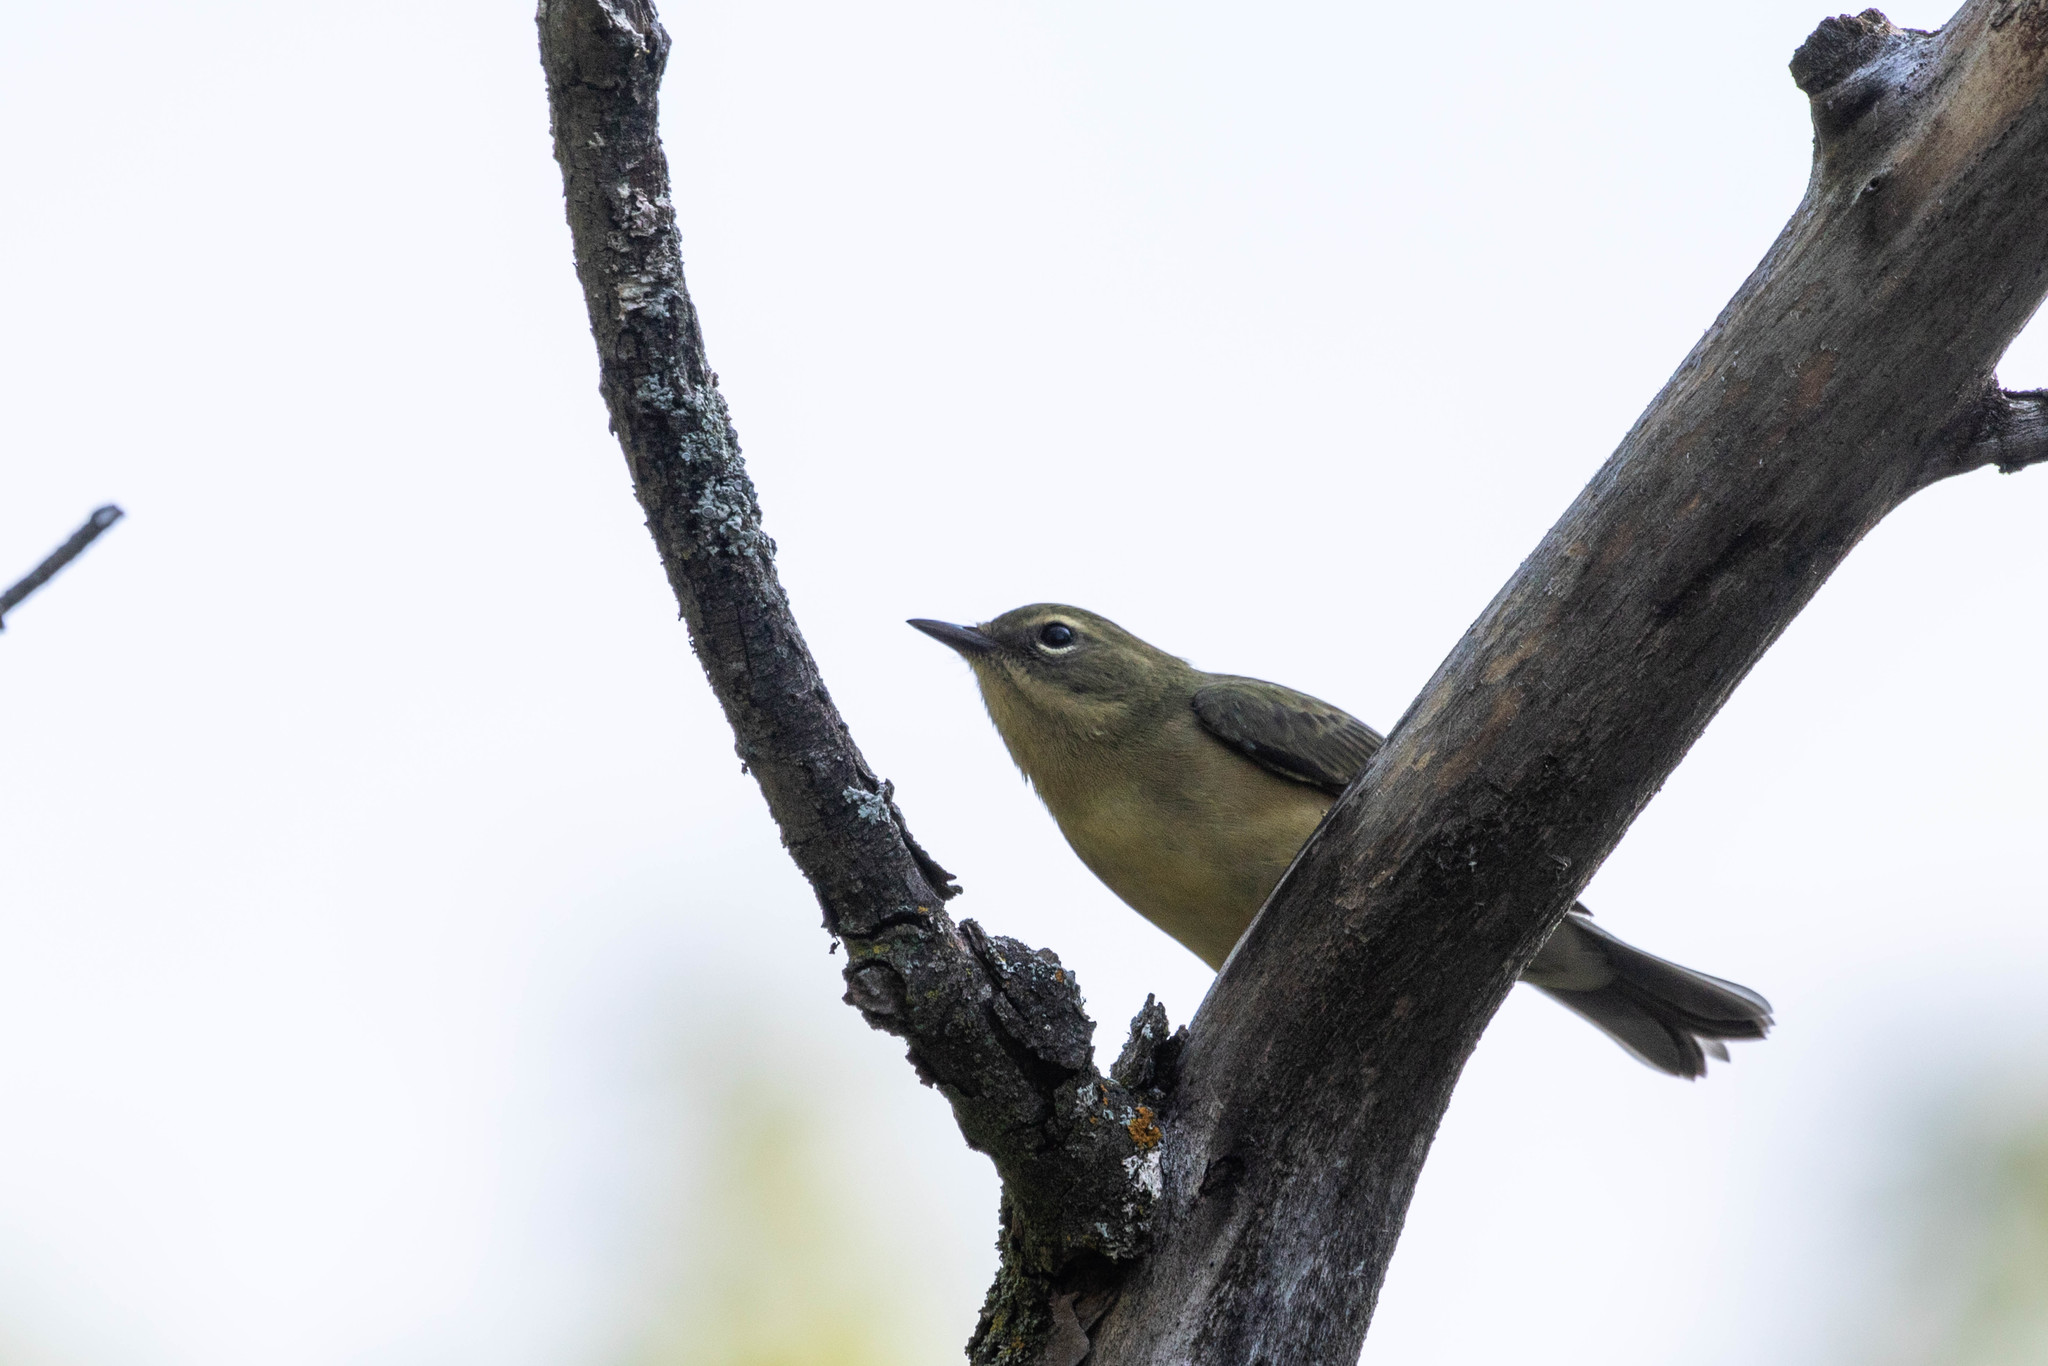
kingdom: Animalia
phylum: Chordata
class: Aves
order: Passeriformes
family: Parulidae
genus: Setophaga
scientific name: Setophaga caerulescens
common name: Black-throated blue warbler
